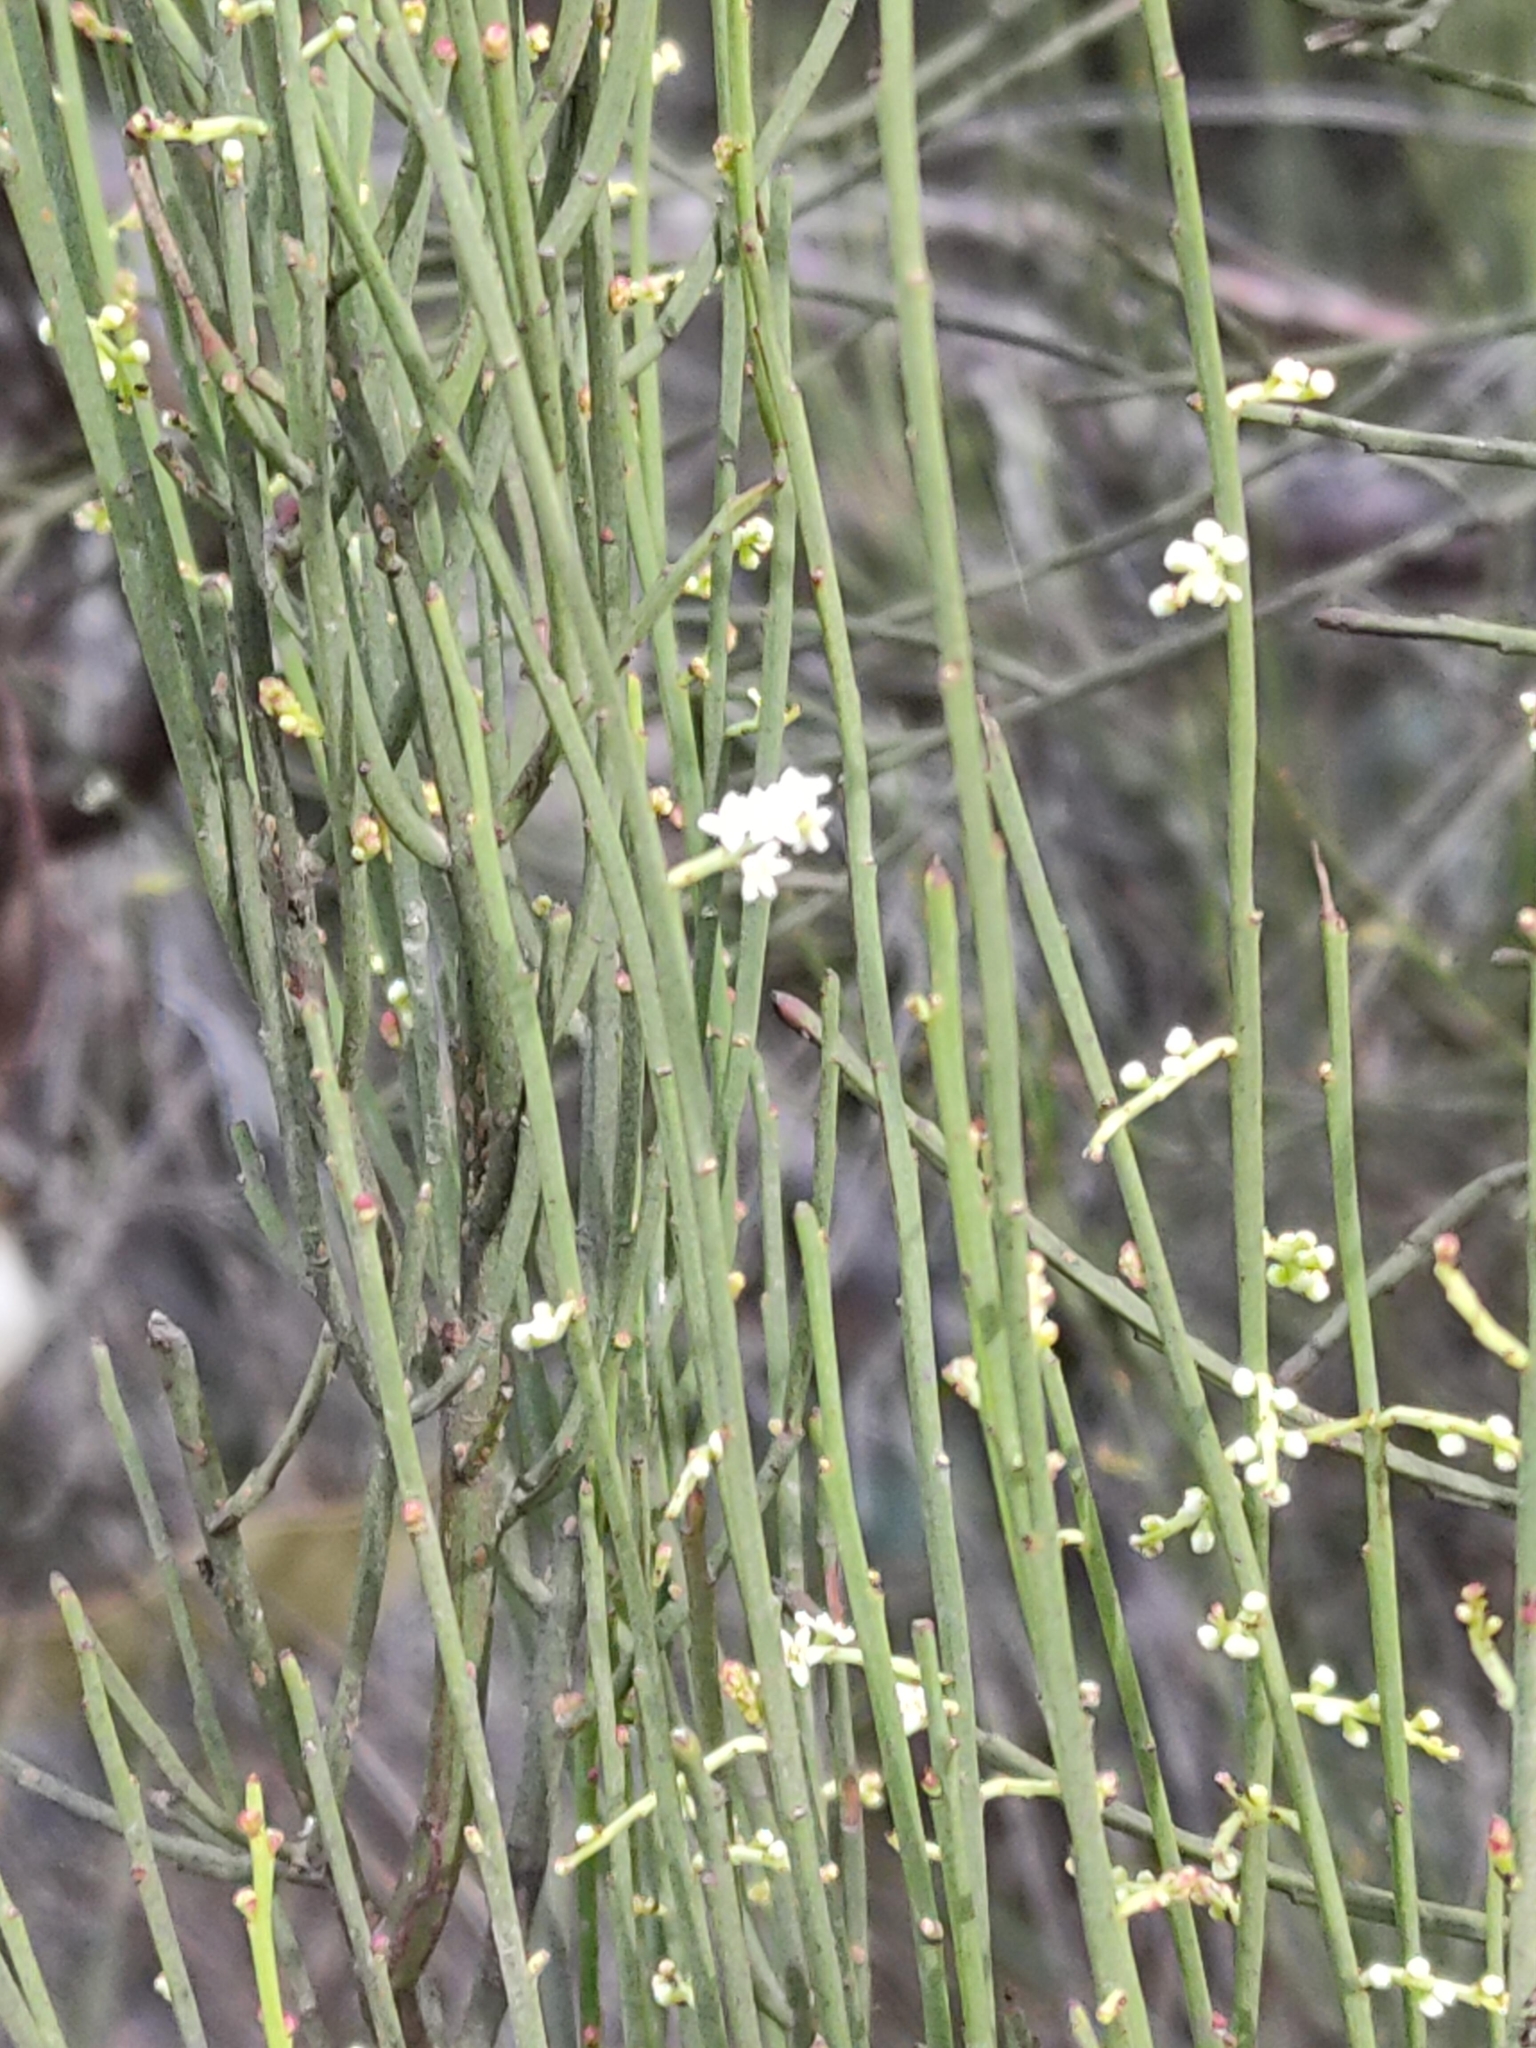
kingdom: Plantae
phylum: Tracheophyta
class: Magnoliopsida
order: Santalales
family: Amphorogynaceae
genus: Leptomeria
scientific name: Leptomeria drupacea
